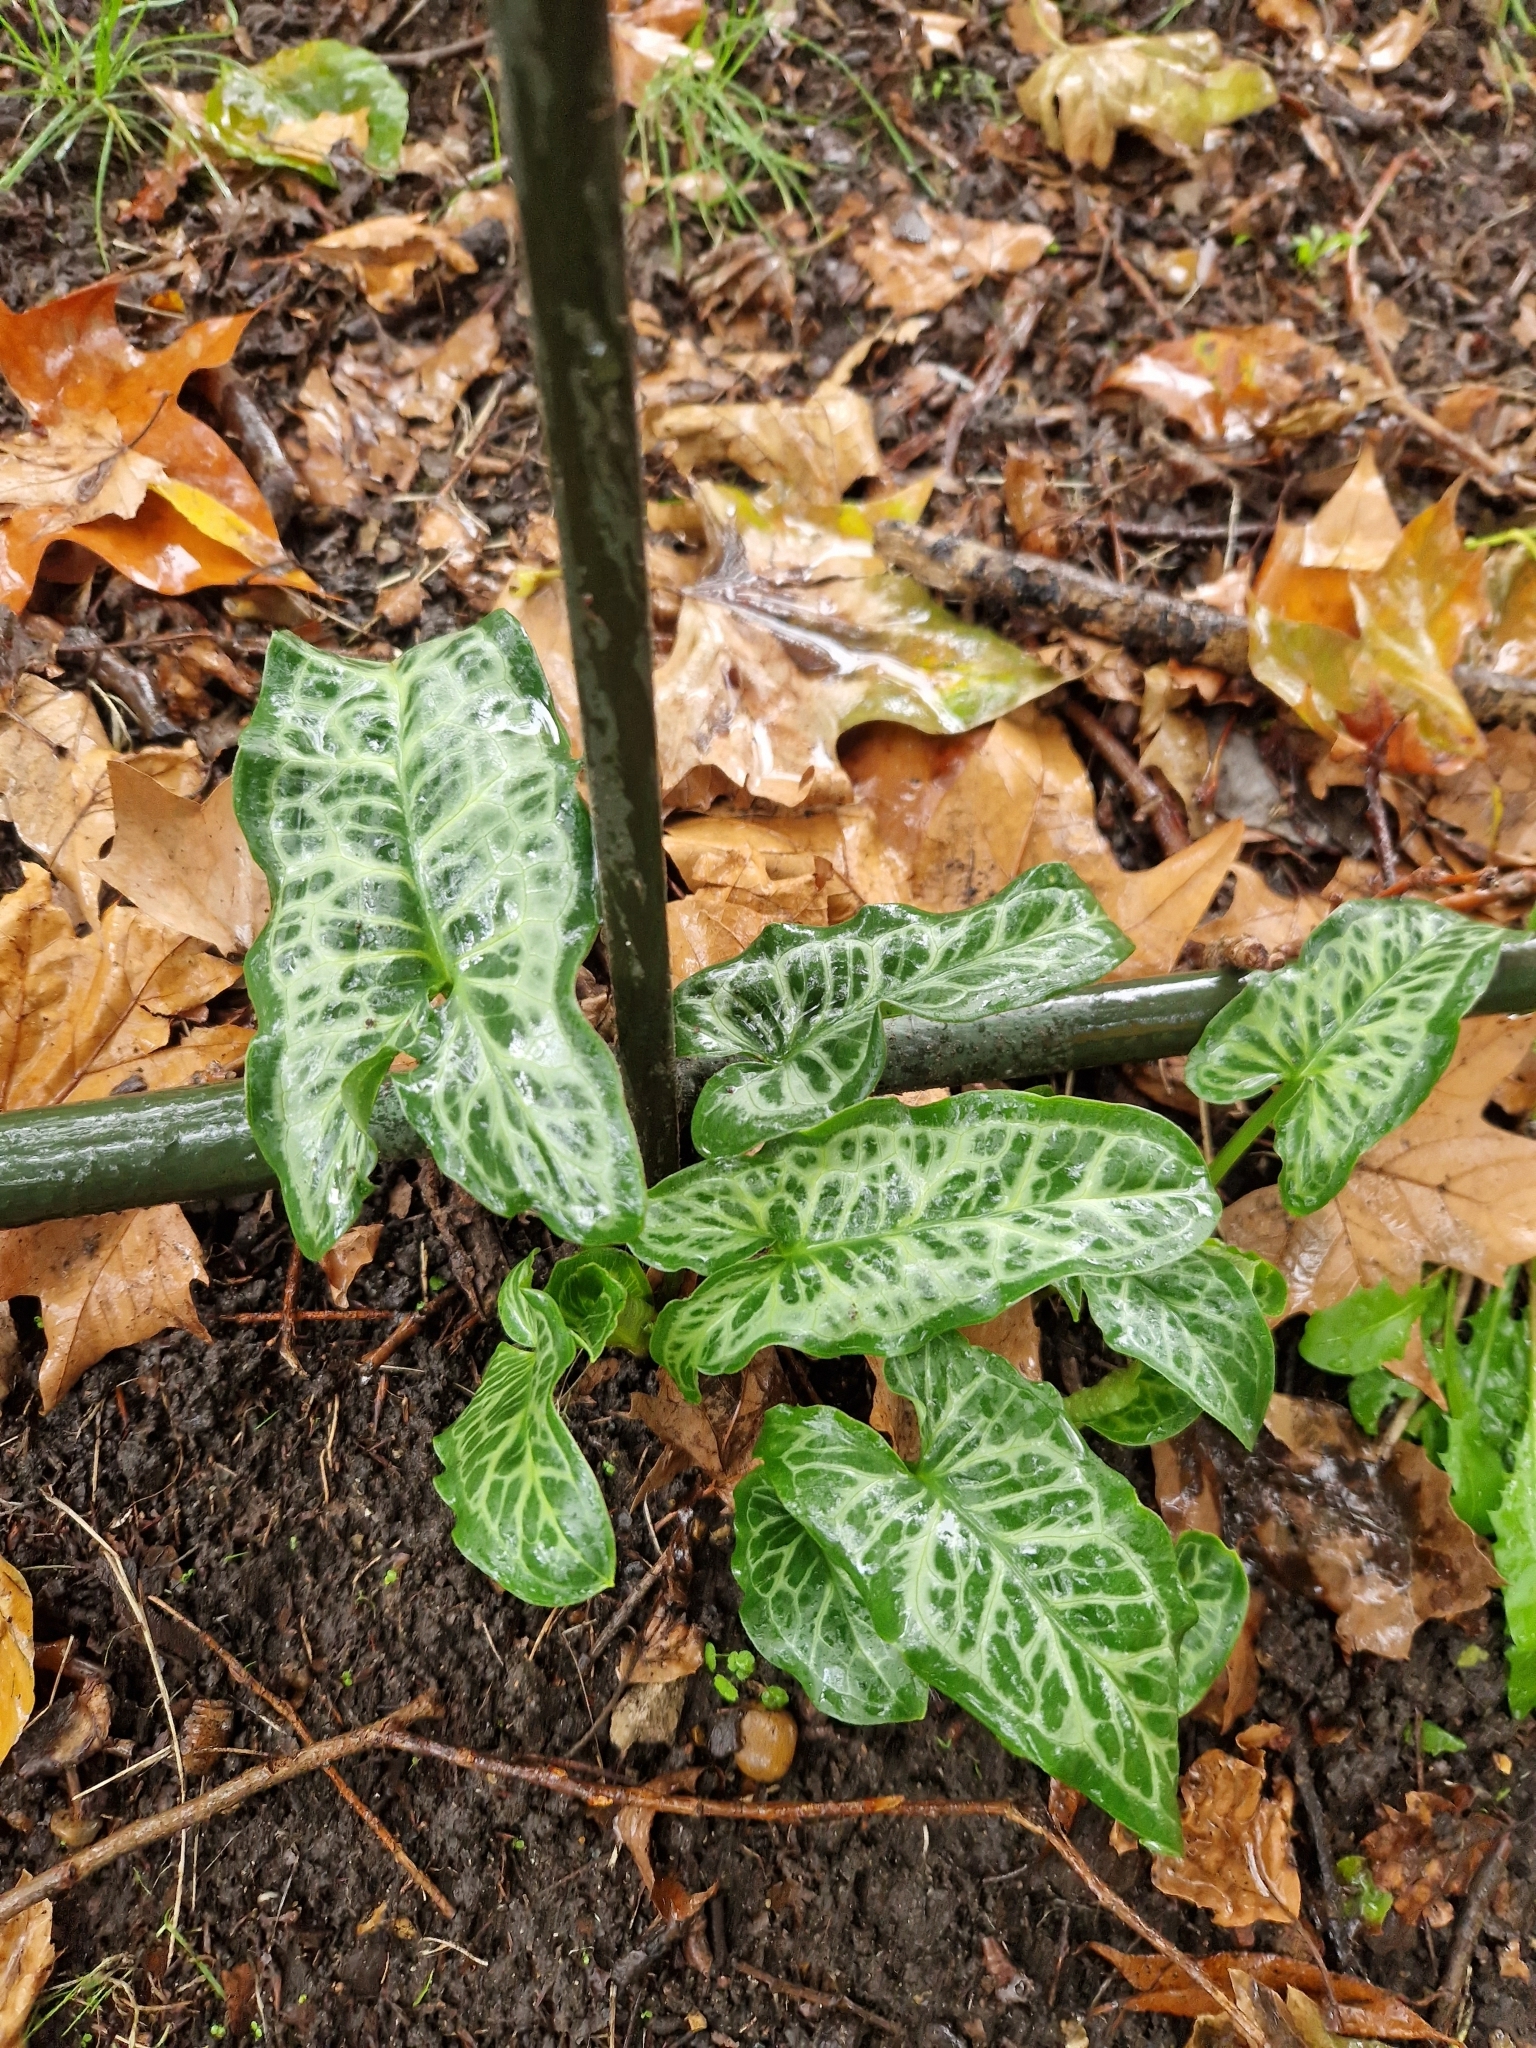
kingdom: Plantae
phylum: Tracheophyta
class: Liliopsida
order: Alismatales
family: Araceae
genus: Arum
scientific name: Arum italicum
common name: Italian lords-and-ladies
